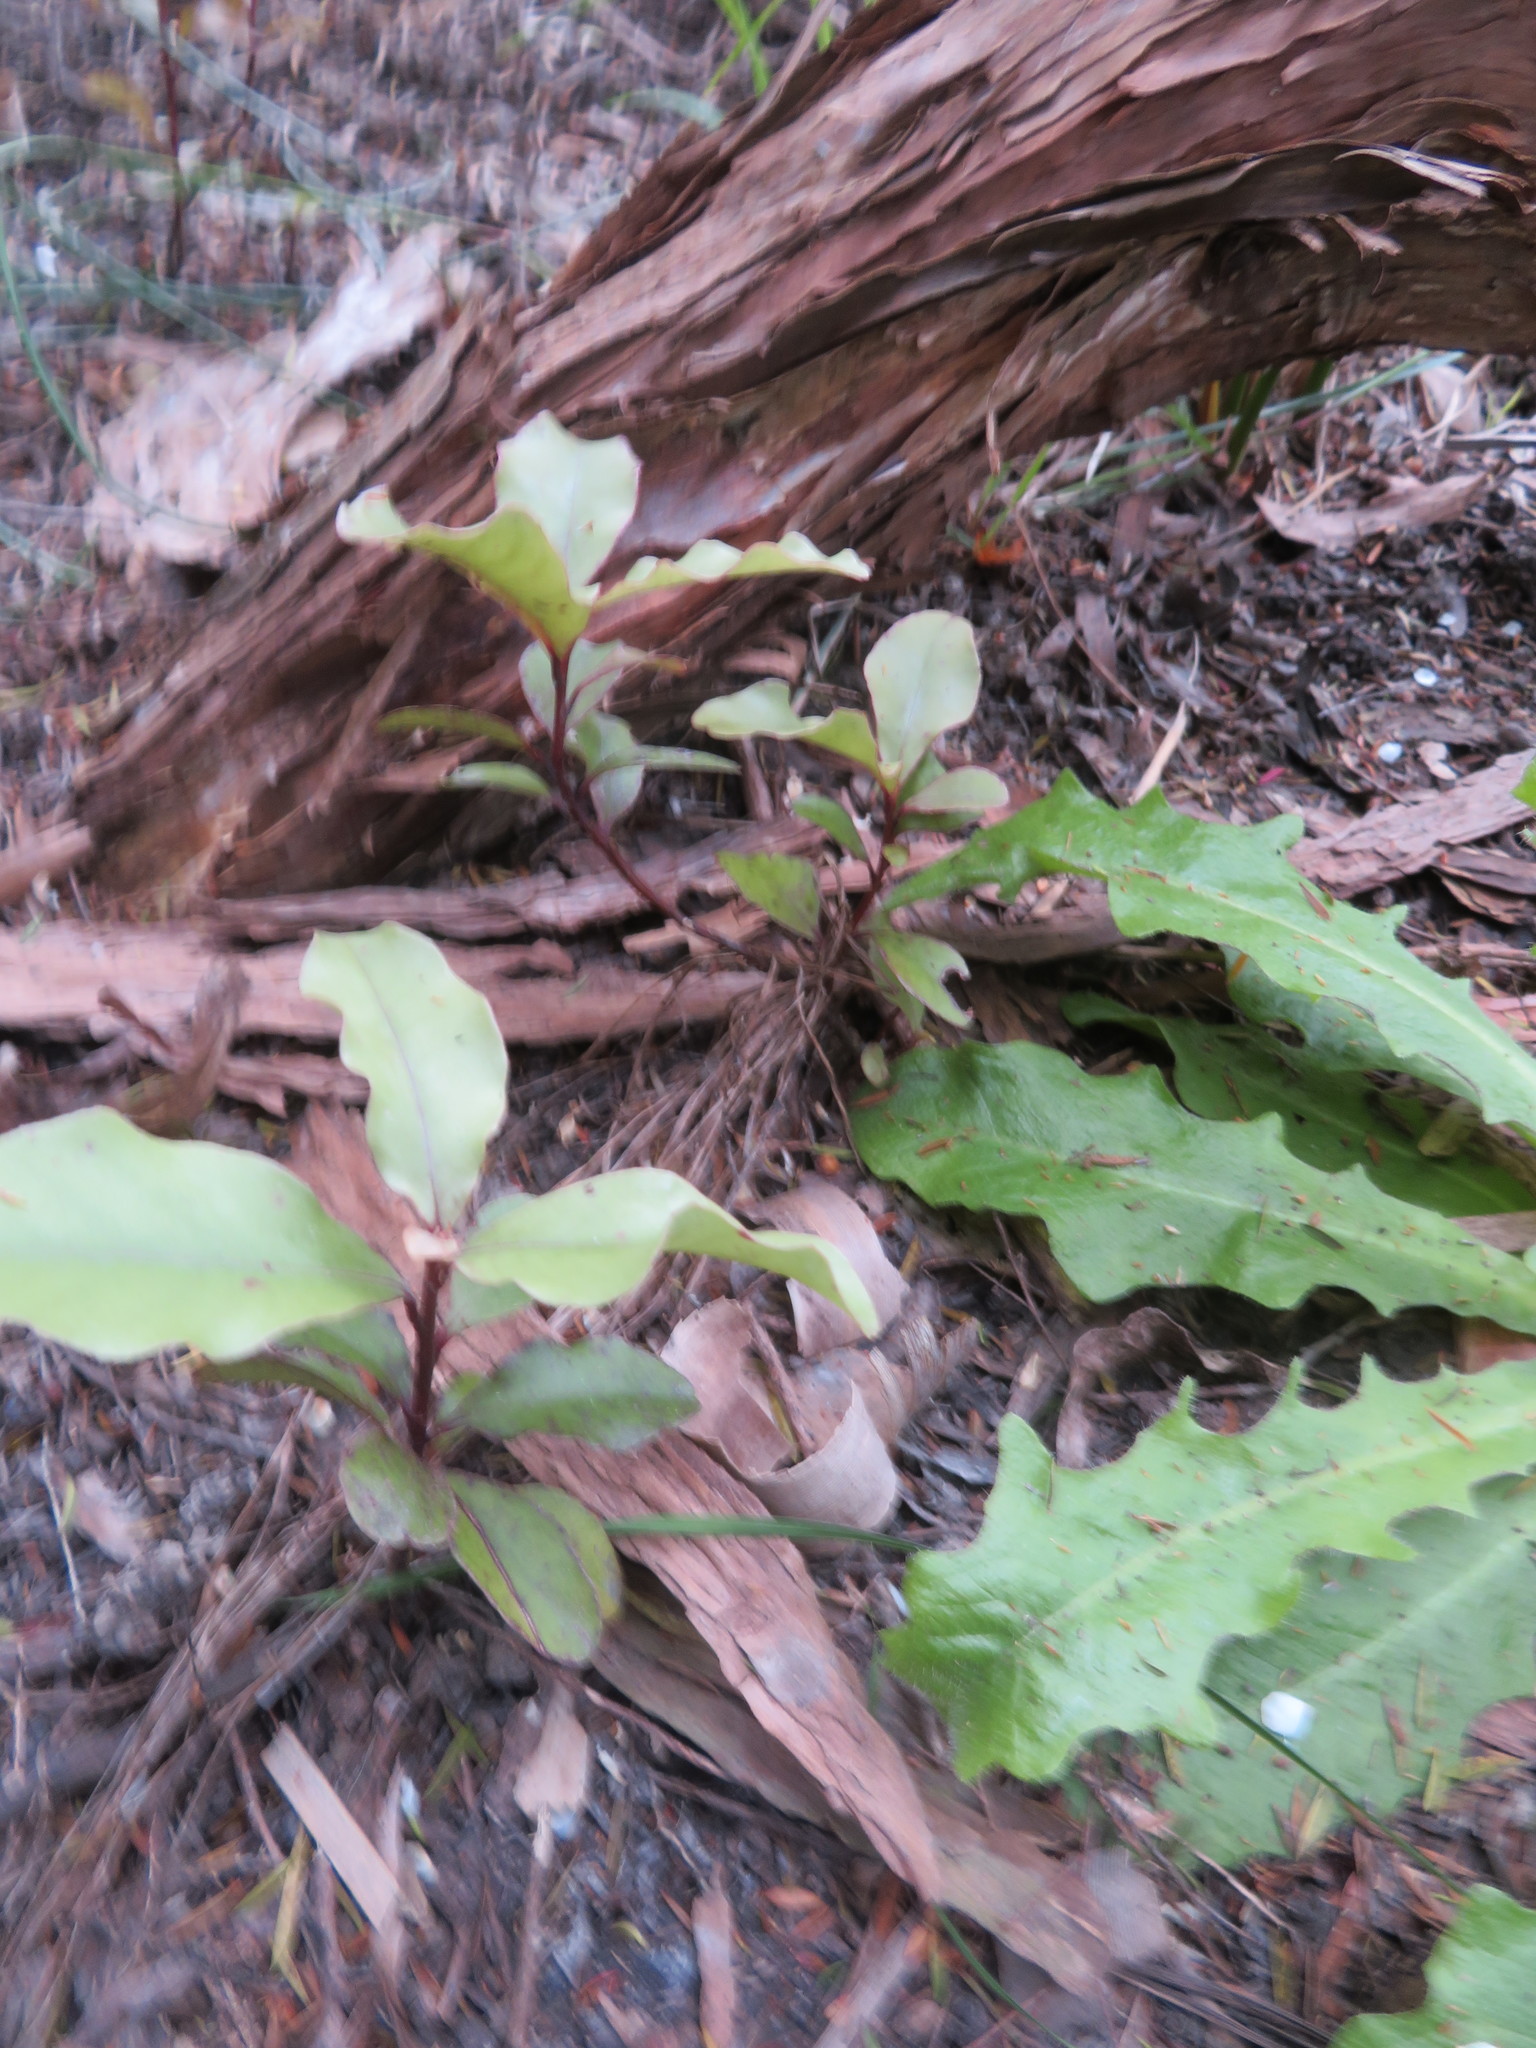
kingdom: Plantae
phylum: Tracheophyta
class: Magnoliopsida
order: Ericales
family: Primulaceae
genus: Myrsine
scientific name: Myrsine australis
